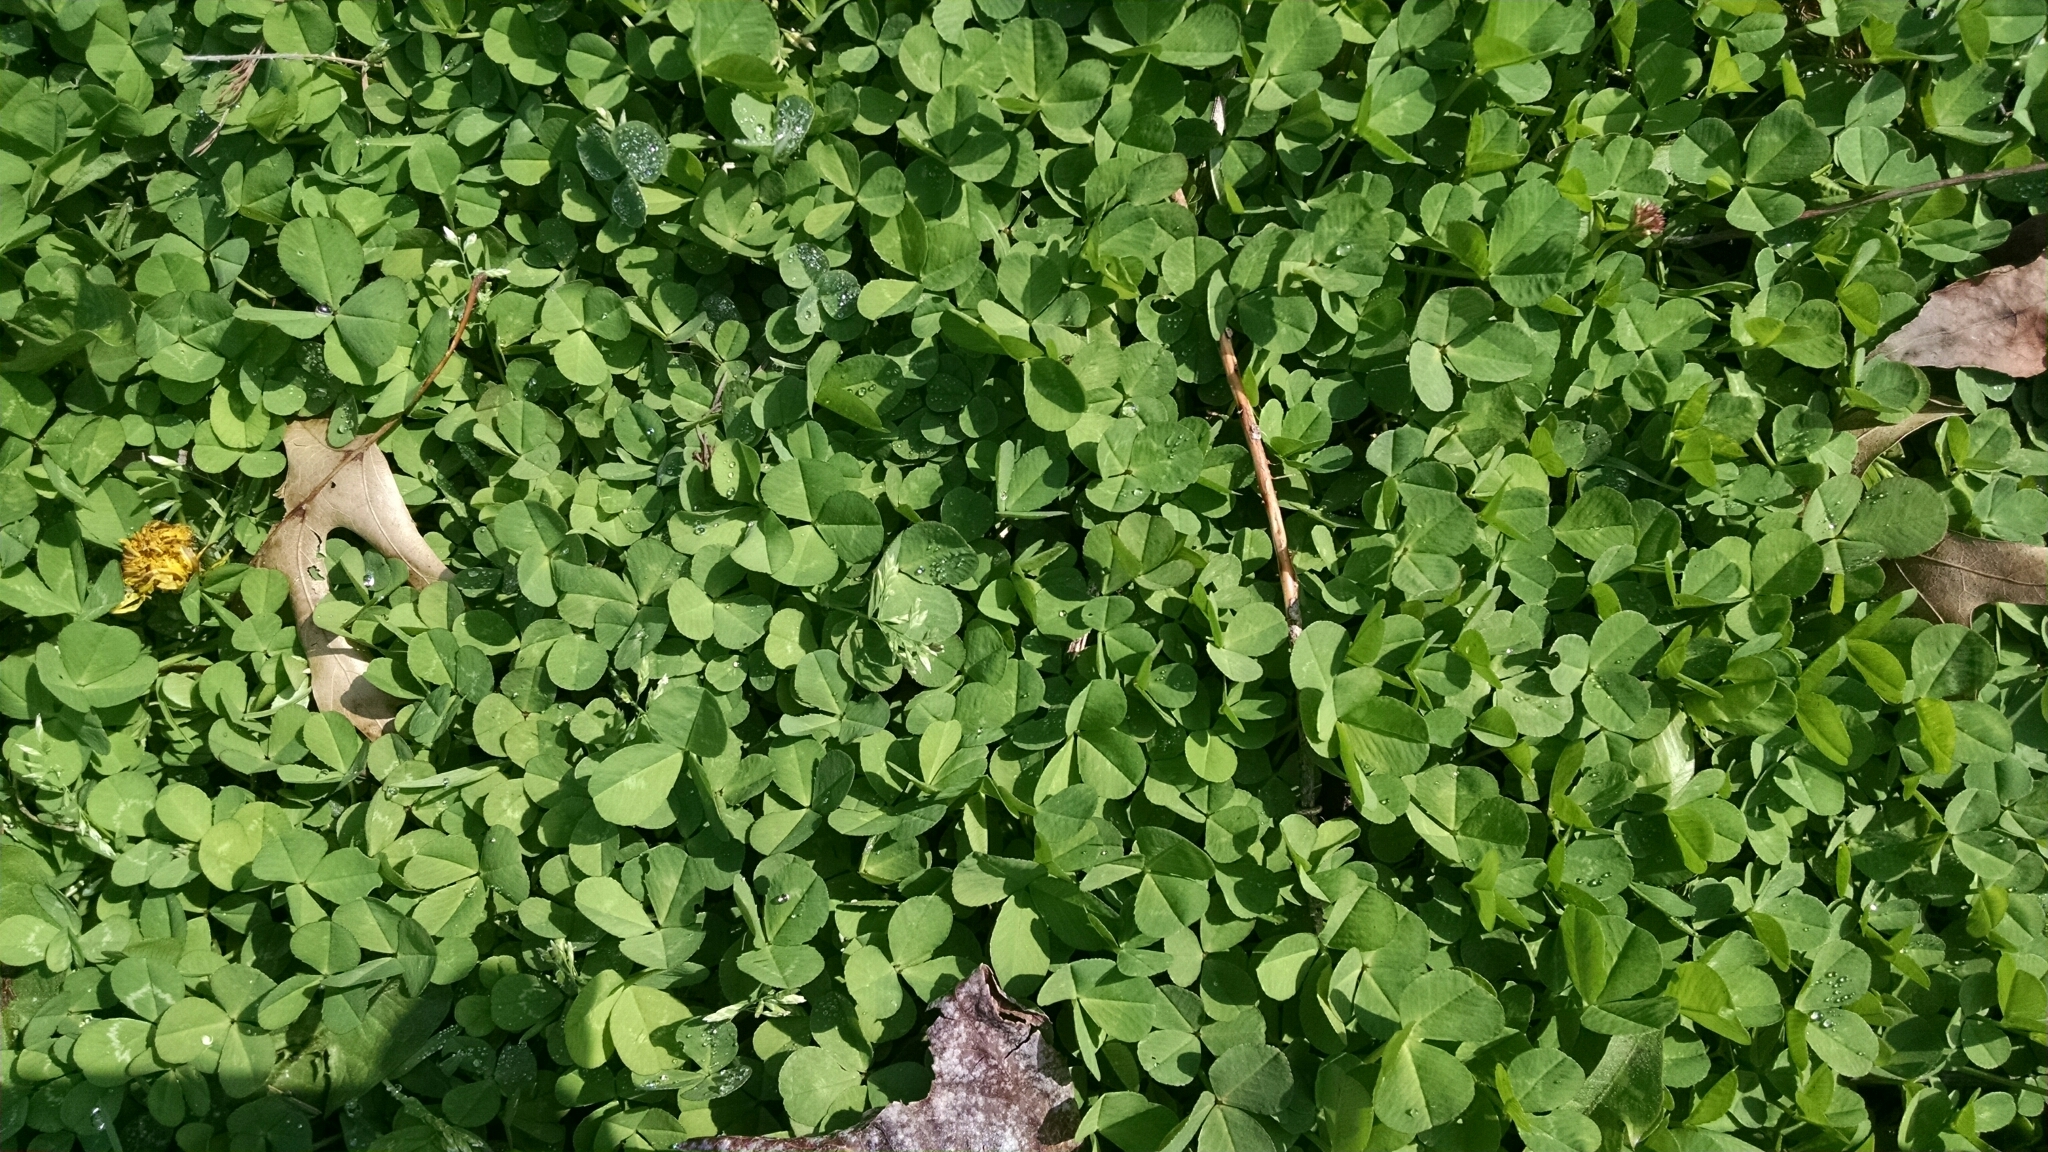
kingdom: Plantae
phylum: Tracheophyta
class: Magnoliopsida
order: Fabales
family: Fabaceae
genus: Trifolium
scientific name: Trifolium repens
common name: White clover
